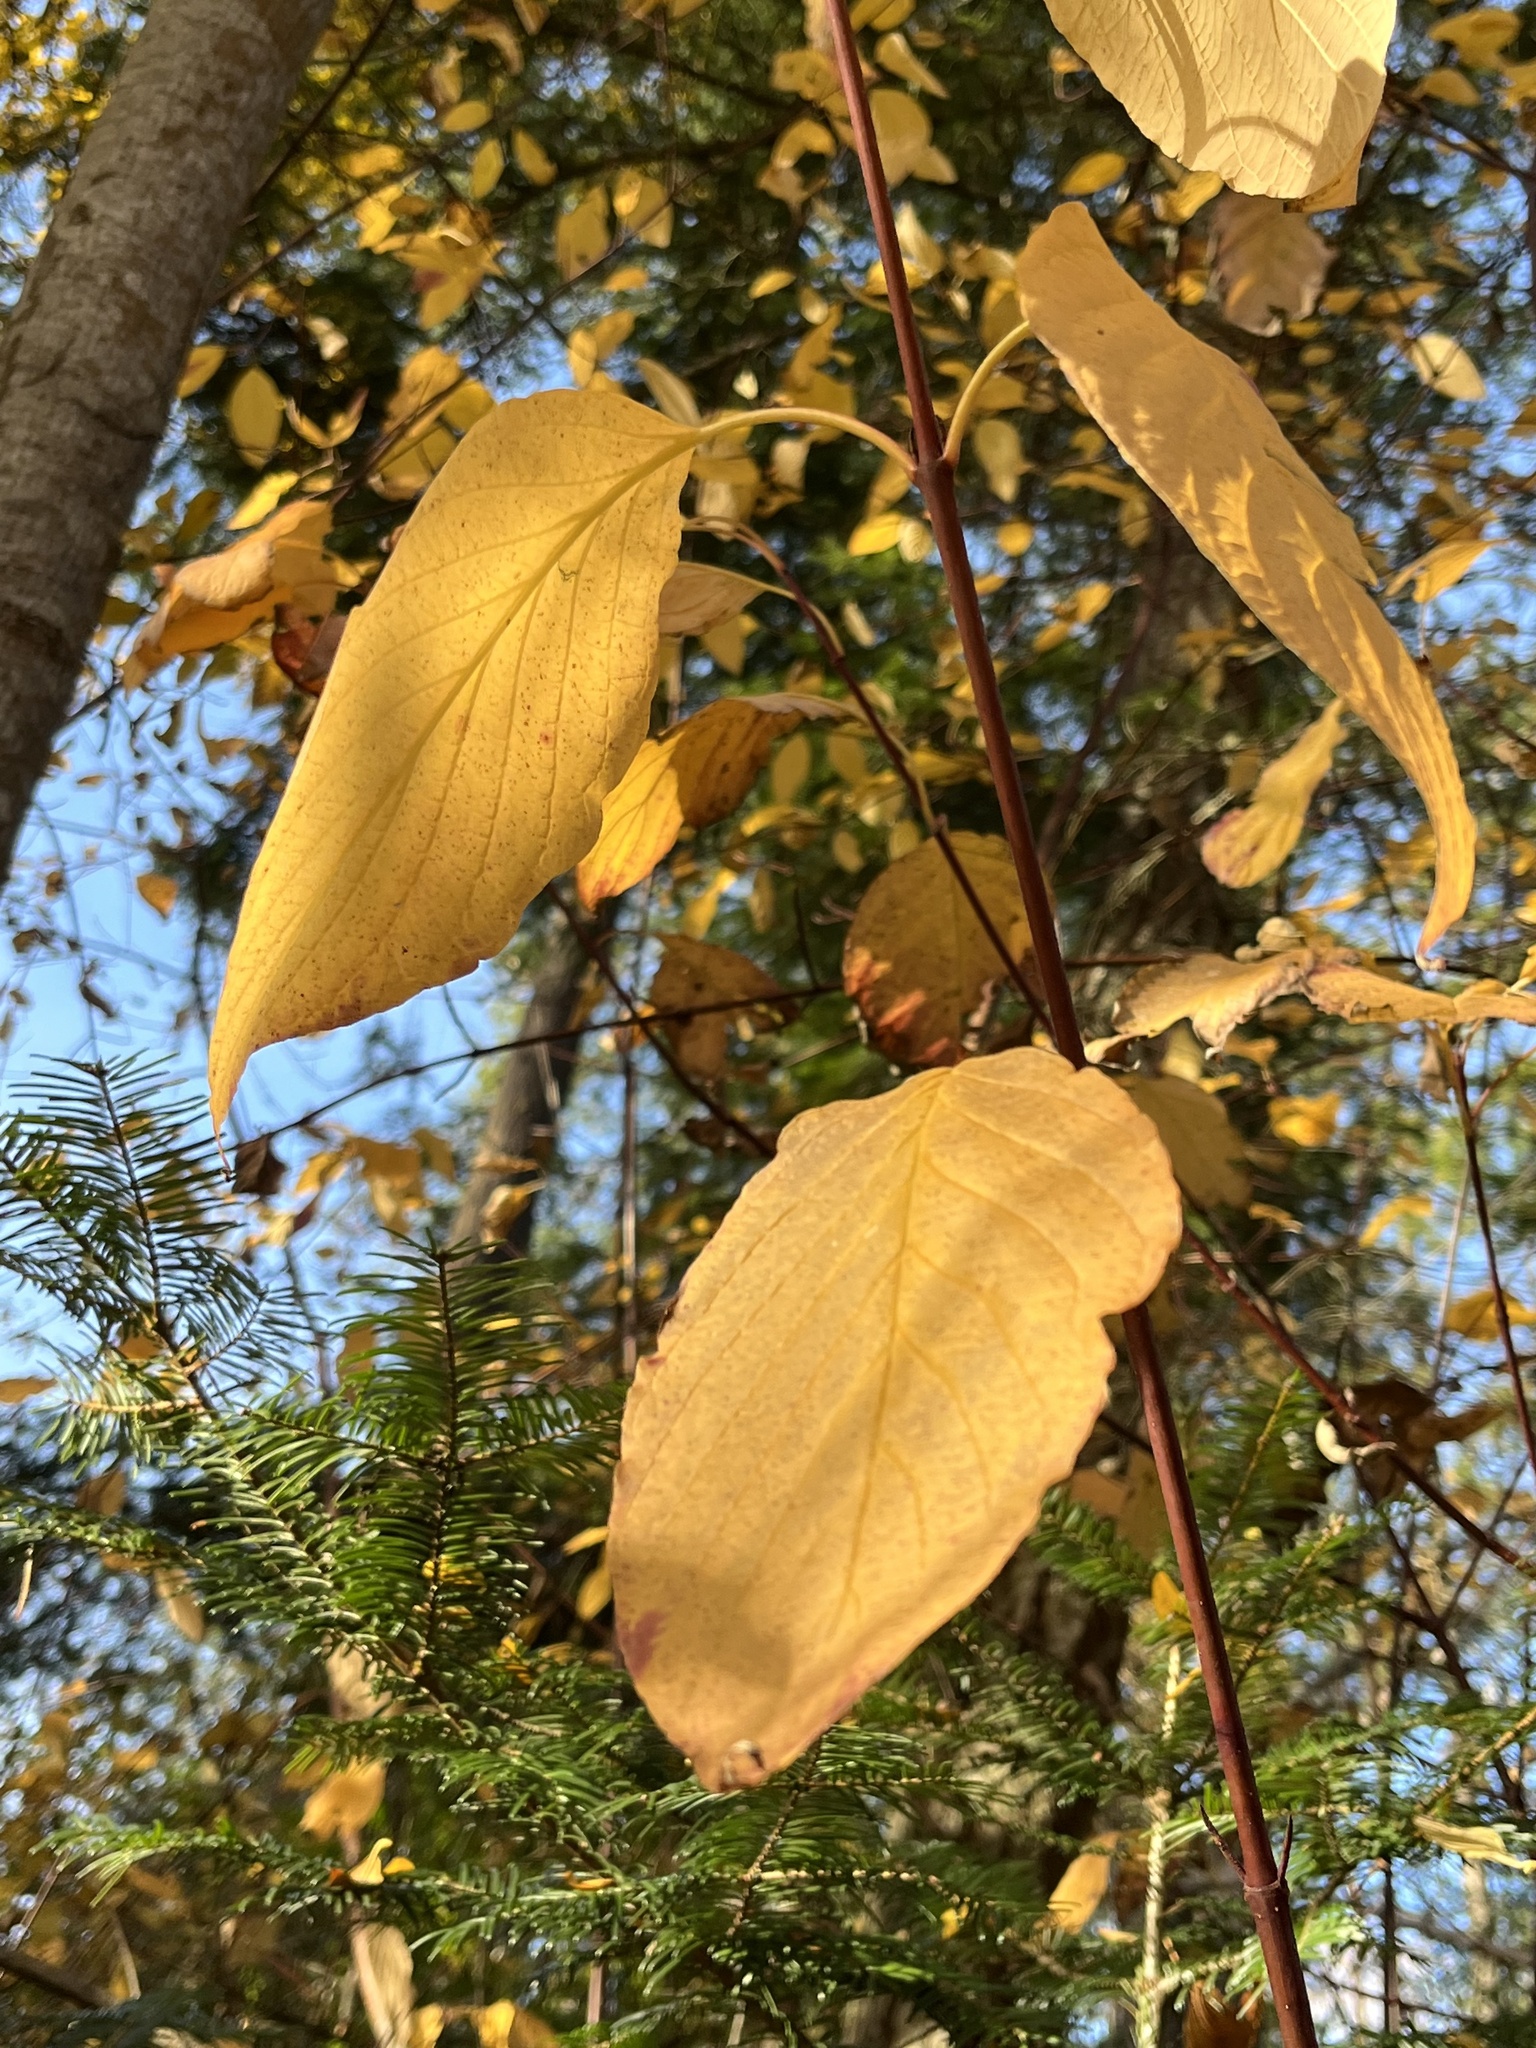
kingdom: Plantae
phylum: Tracheophyta
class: Magnoliopsida
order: Cornales
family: Cornaceae
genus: Cornus
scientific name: Cornus sericea
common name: Red-osier dogwood
